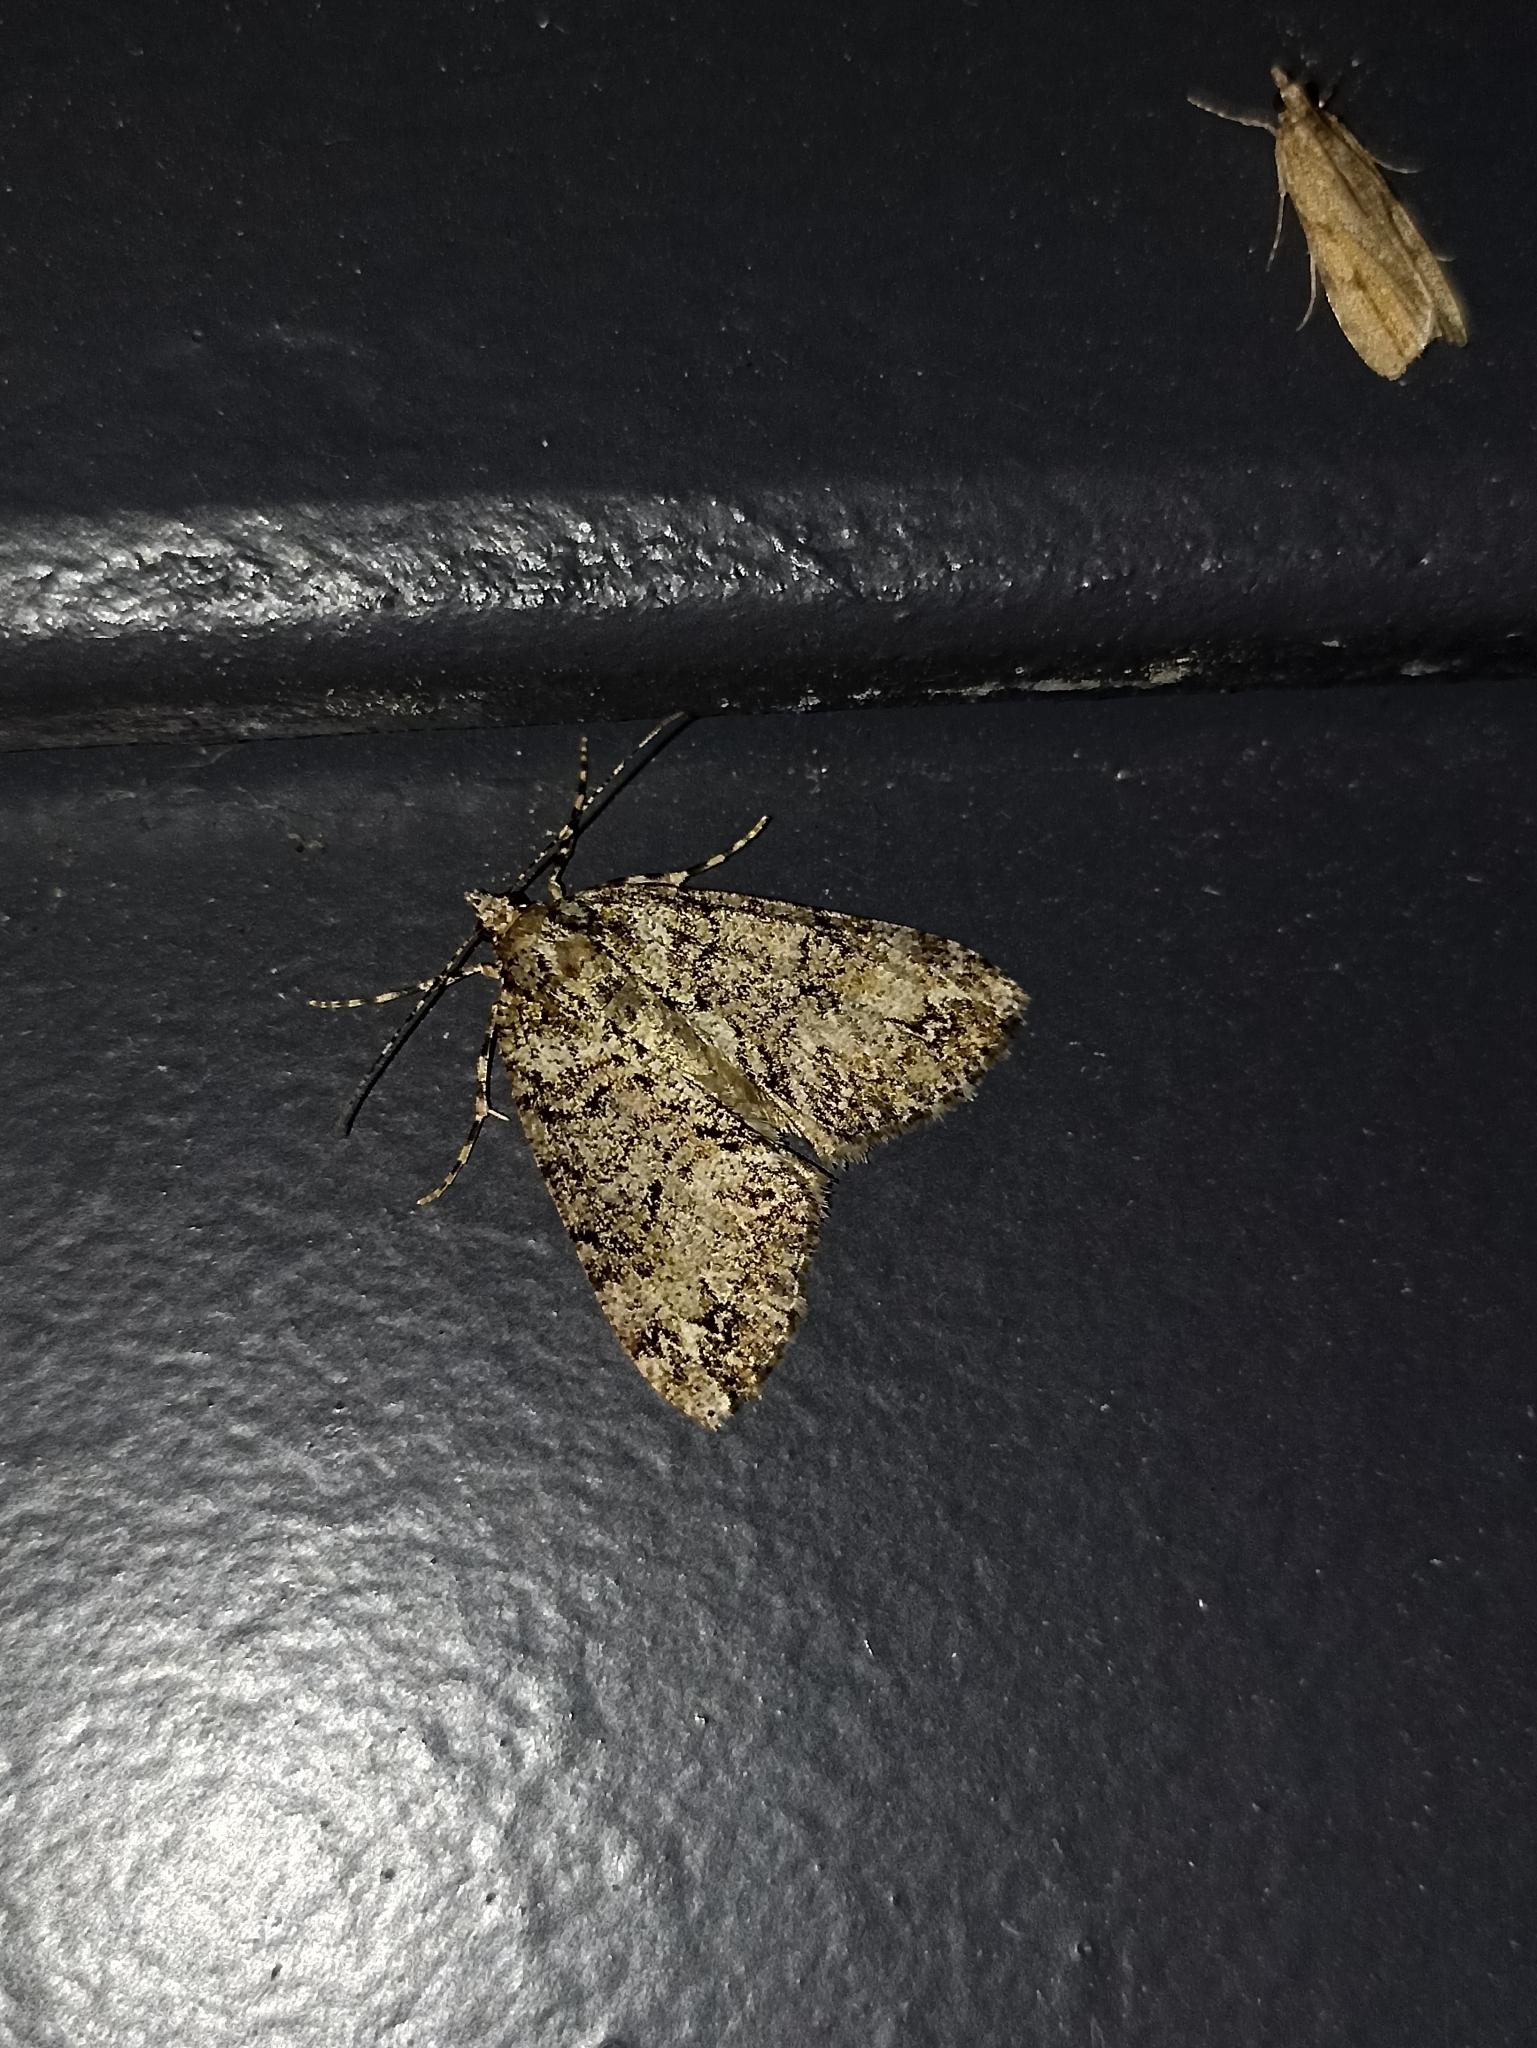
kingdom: Animalia
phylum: Arthropoda
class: Insecta
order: Lepidoptera
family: Geometridae
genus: Pseudocoremia
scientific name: Pseudocoremia suavis
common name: Common forest looper
